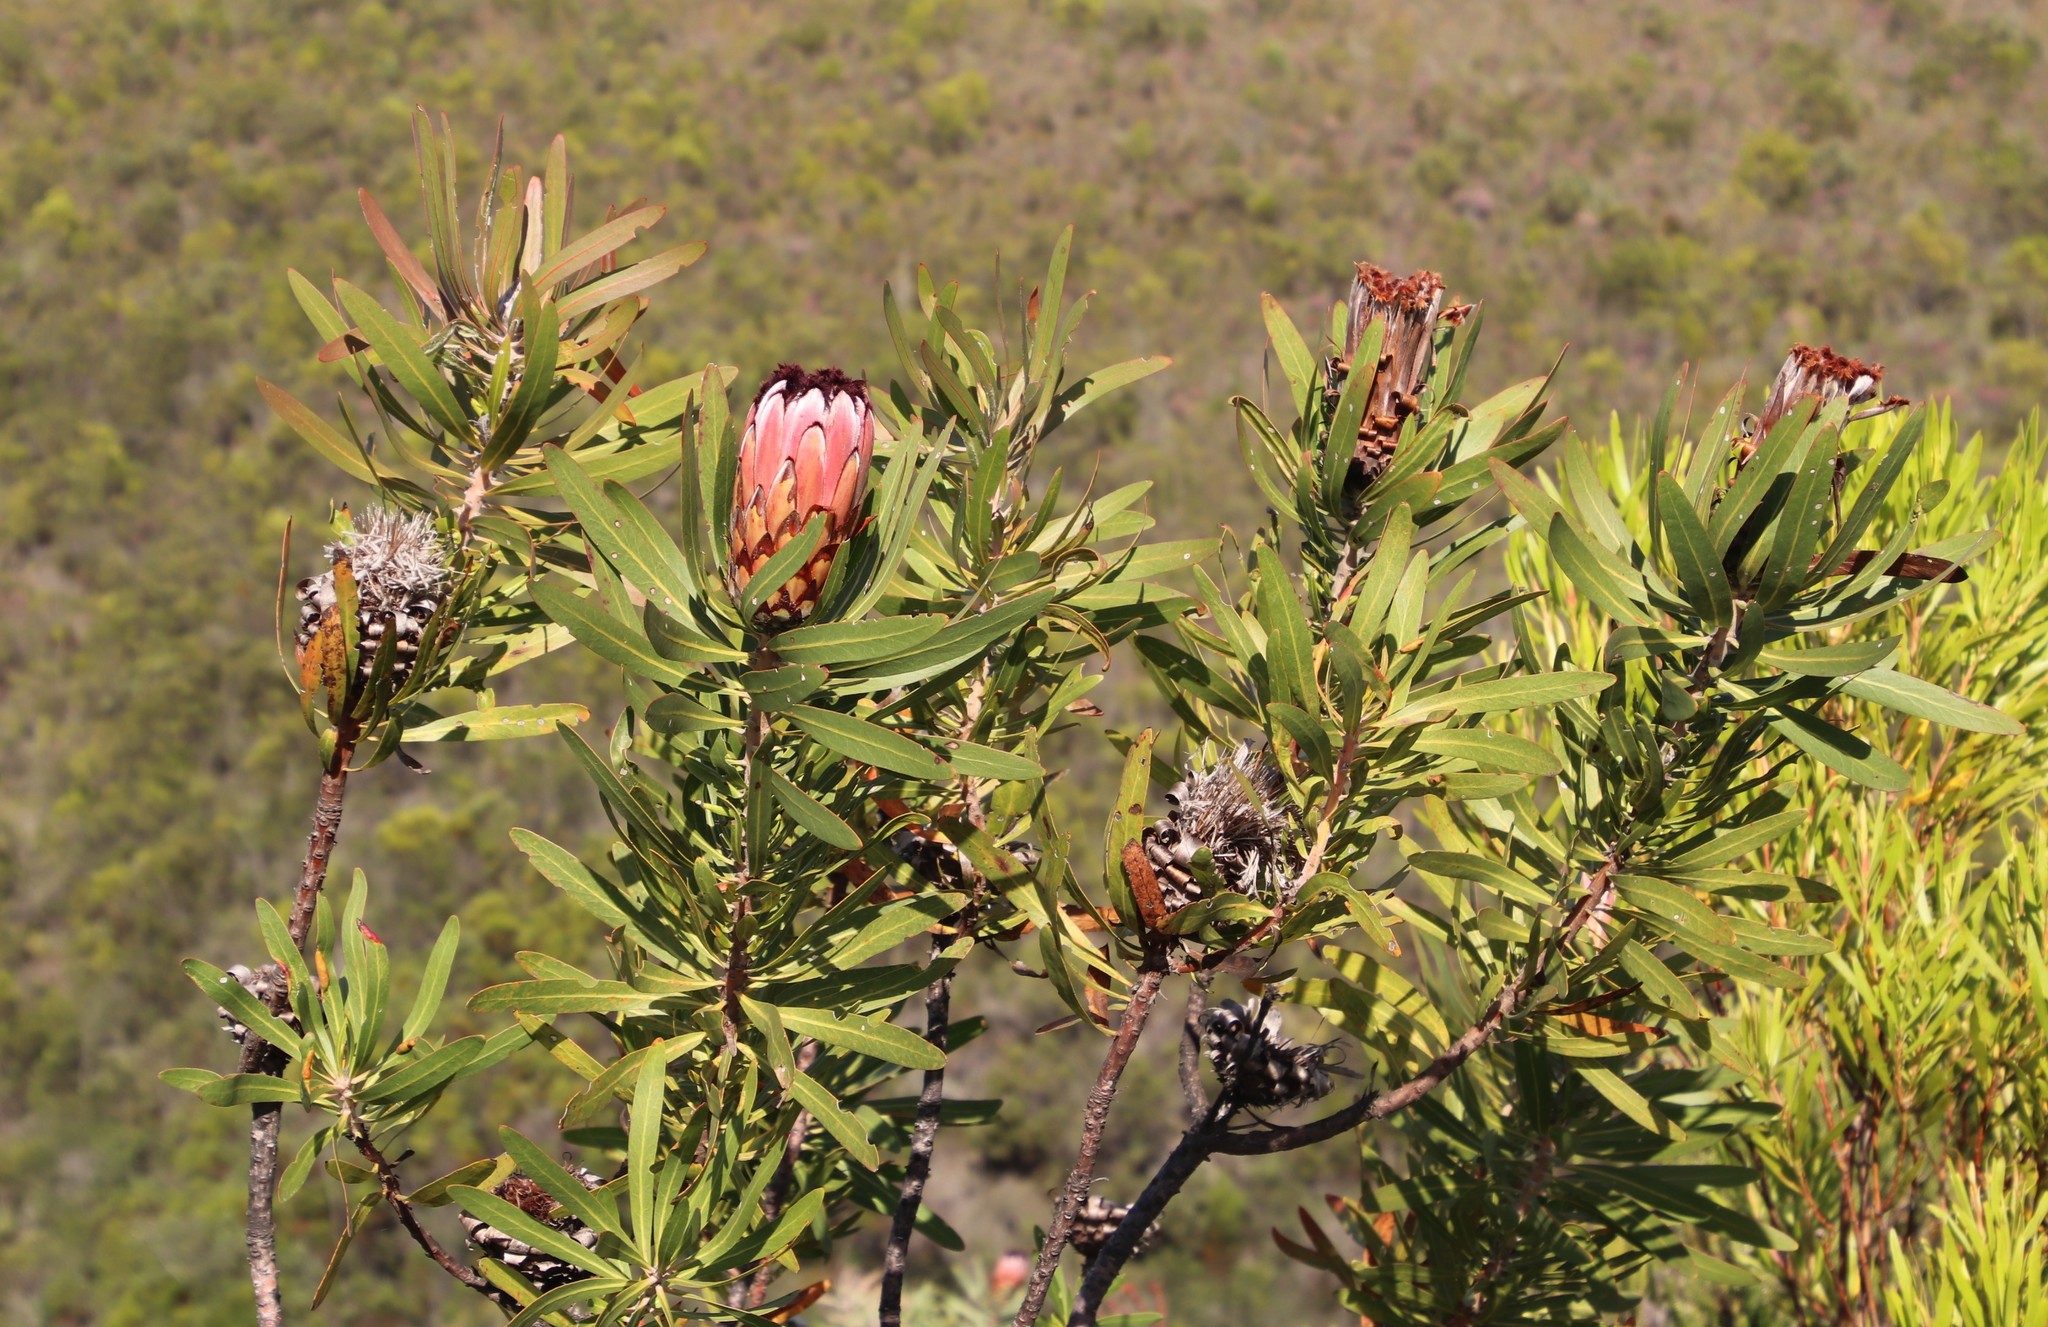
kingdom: Plantae
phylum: Tracheophyta
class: Magnoliopsida
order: Proteales
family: Proteaceae
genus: Protea
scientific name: Protea neriifolia
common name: Blue sugarbush
